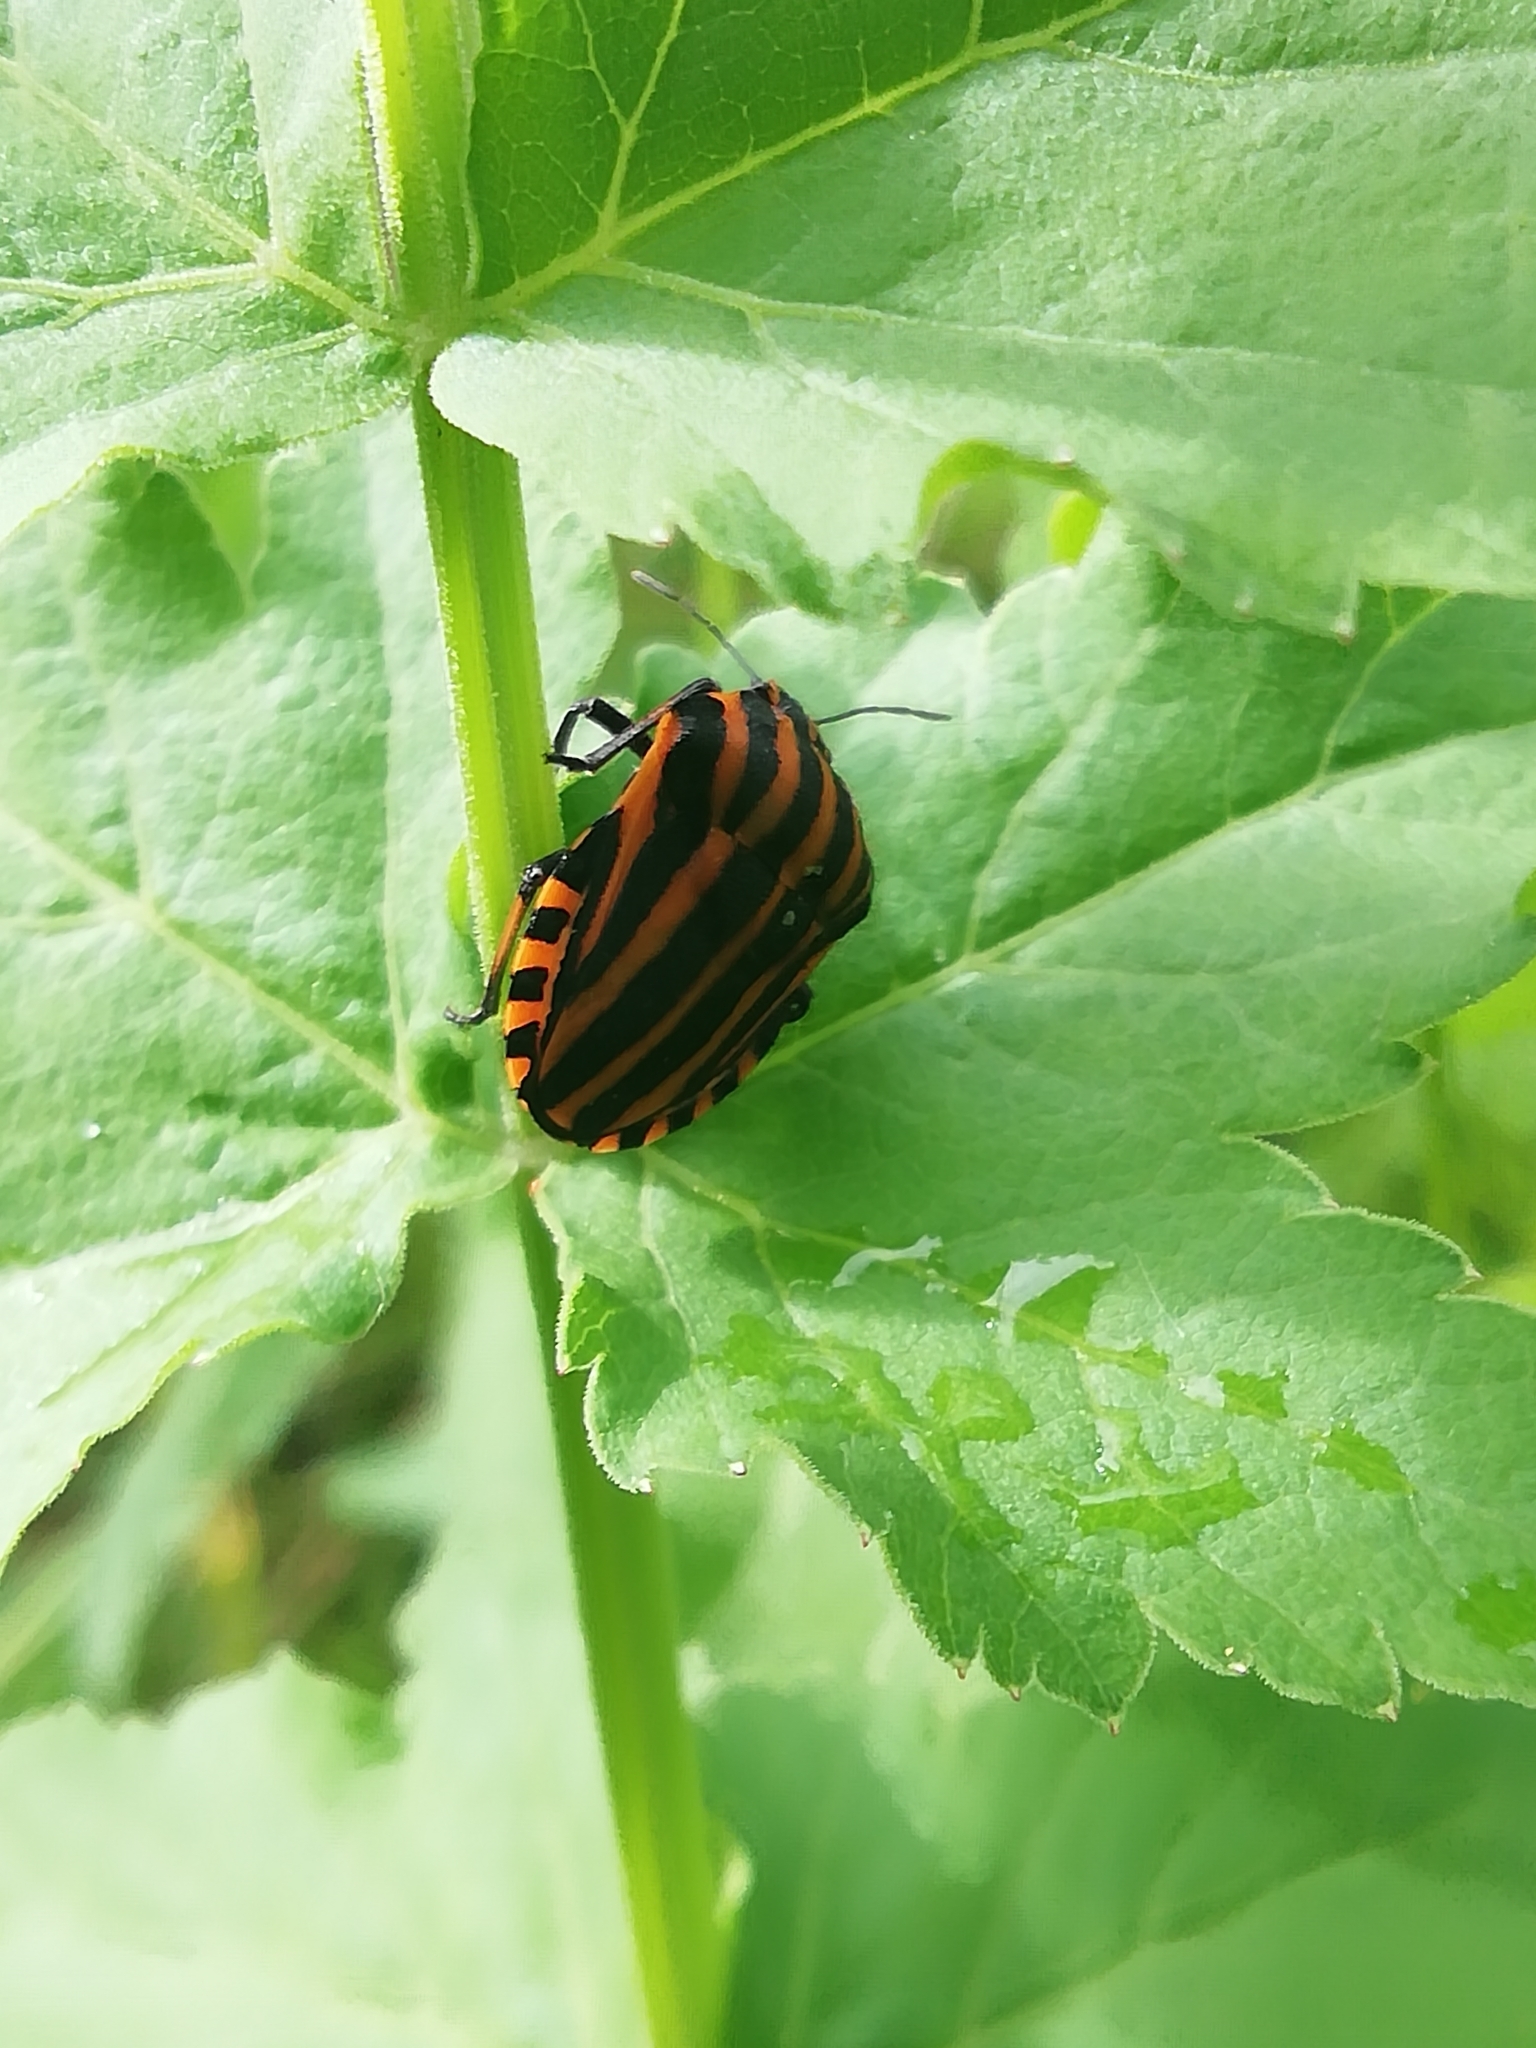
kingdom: Animalia
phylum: Arthropoda
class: Insecta
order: Hemiptera
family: Pentatomidae
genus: Graphosoma
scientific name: Graphosoma italicum
